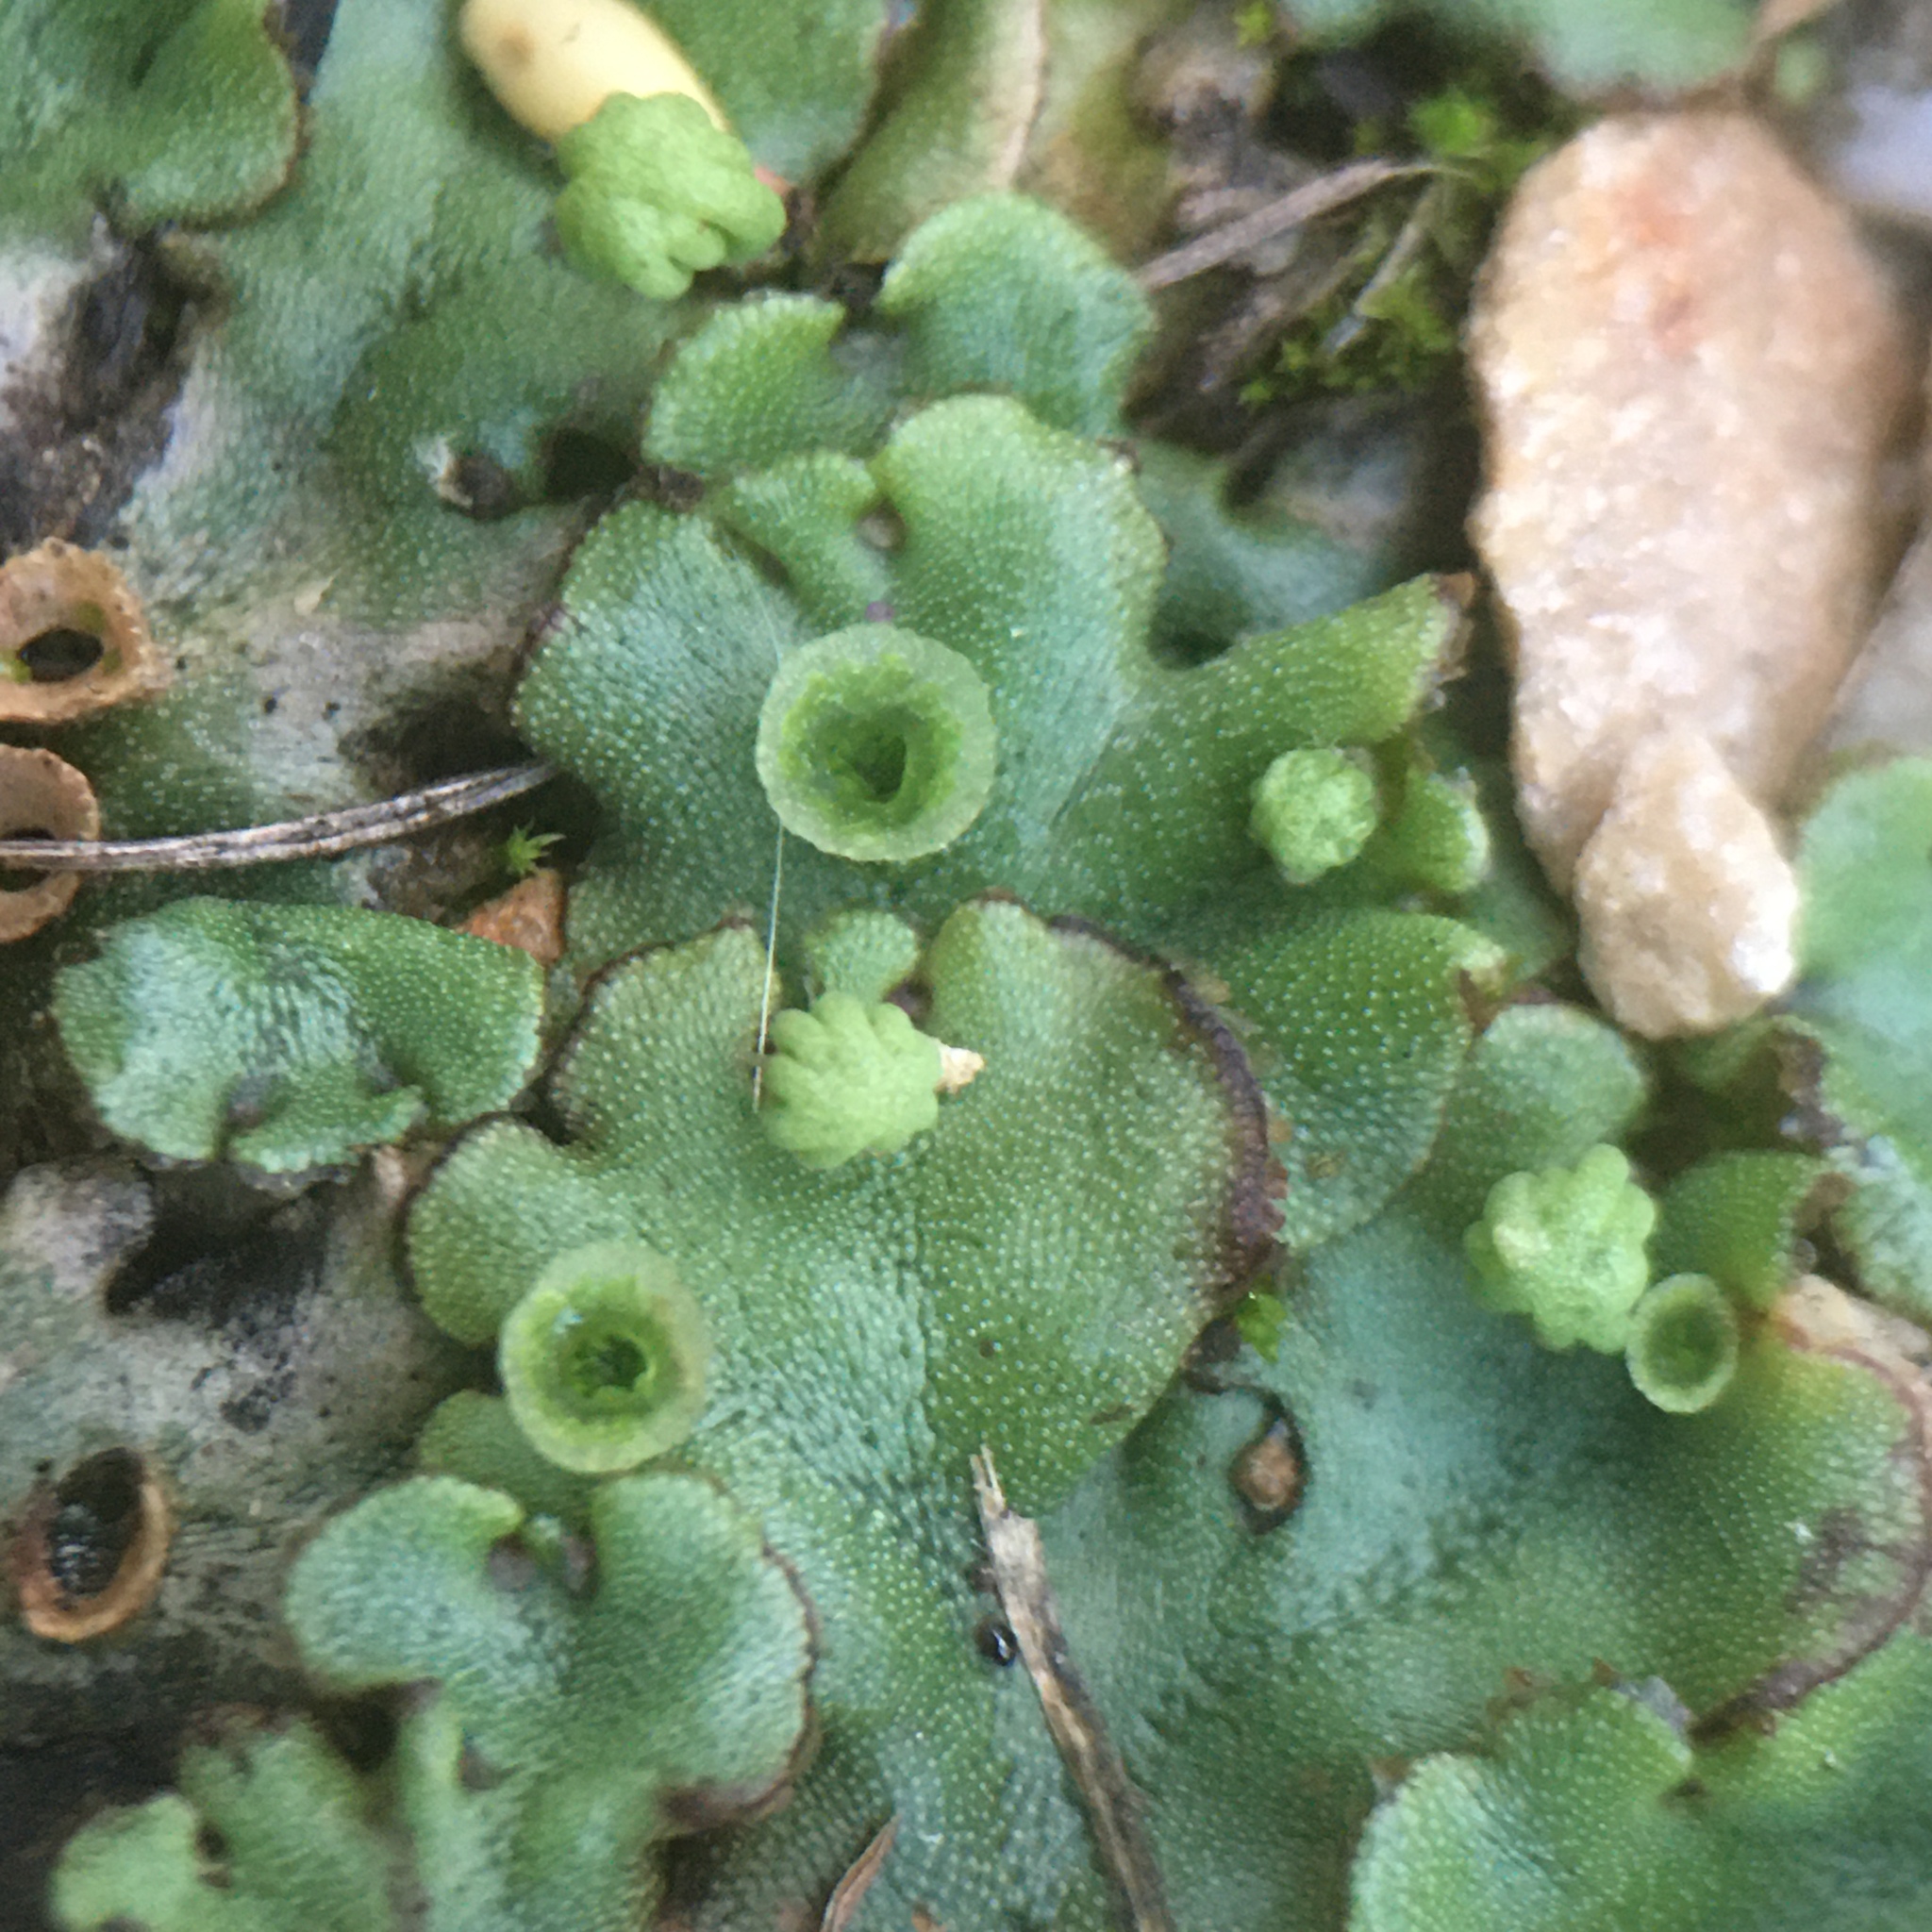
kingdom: Plantae
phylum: Marchantiophyta
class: Marchantiopsida
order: Marchantiales
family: Marchantiaceae
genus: Marchantia
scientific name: Marchantia polymorpha
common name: Common liverwort
